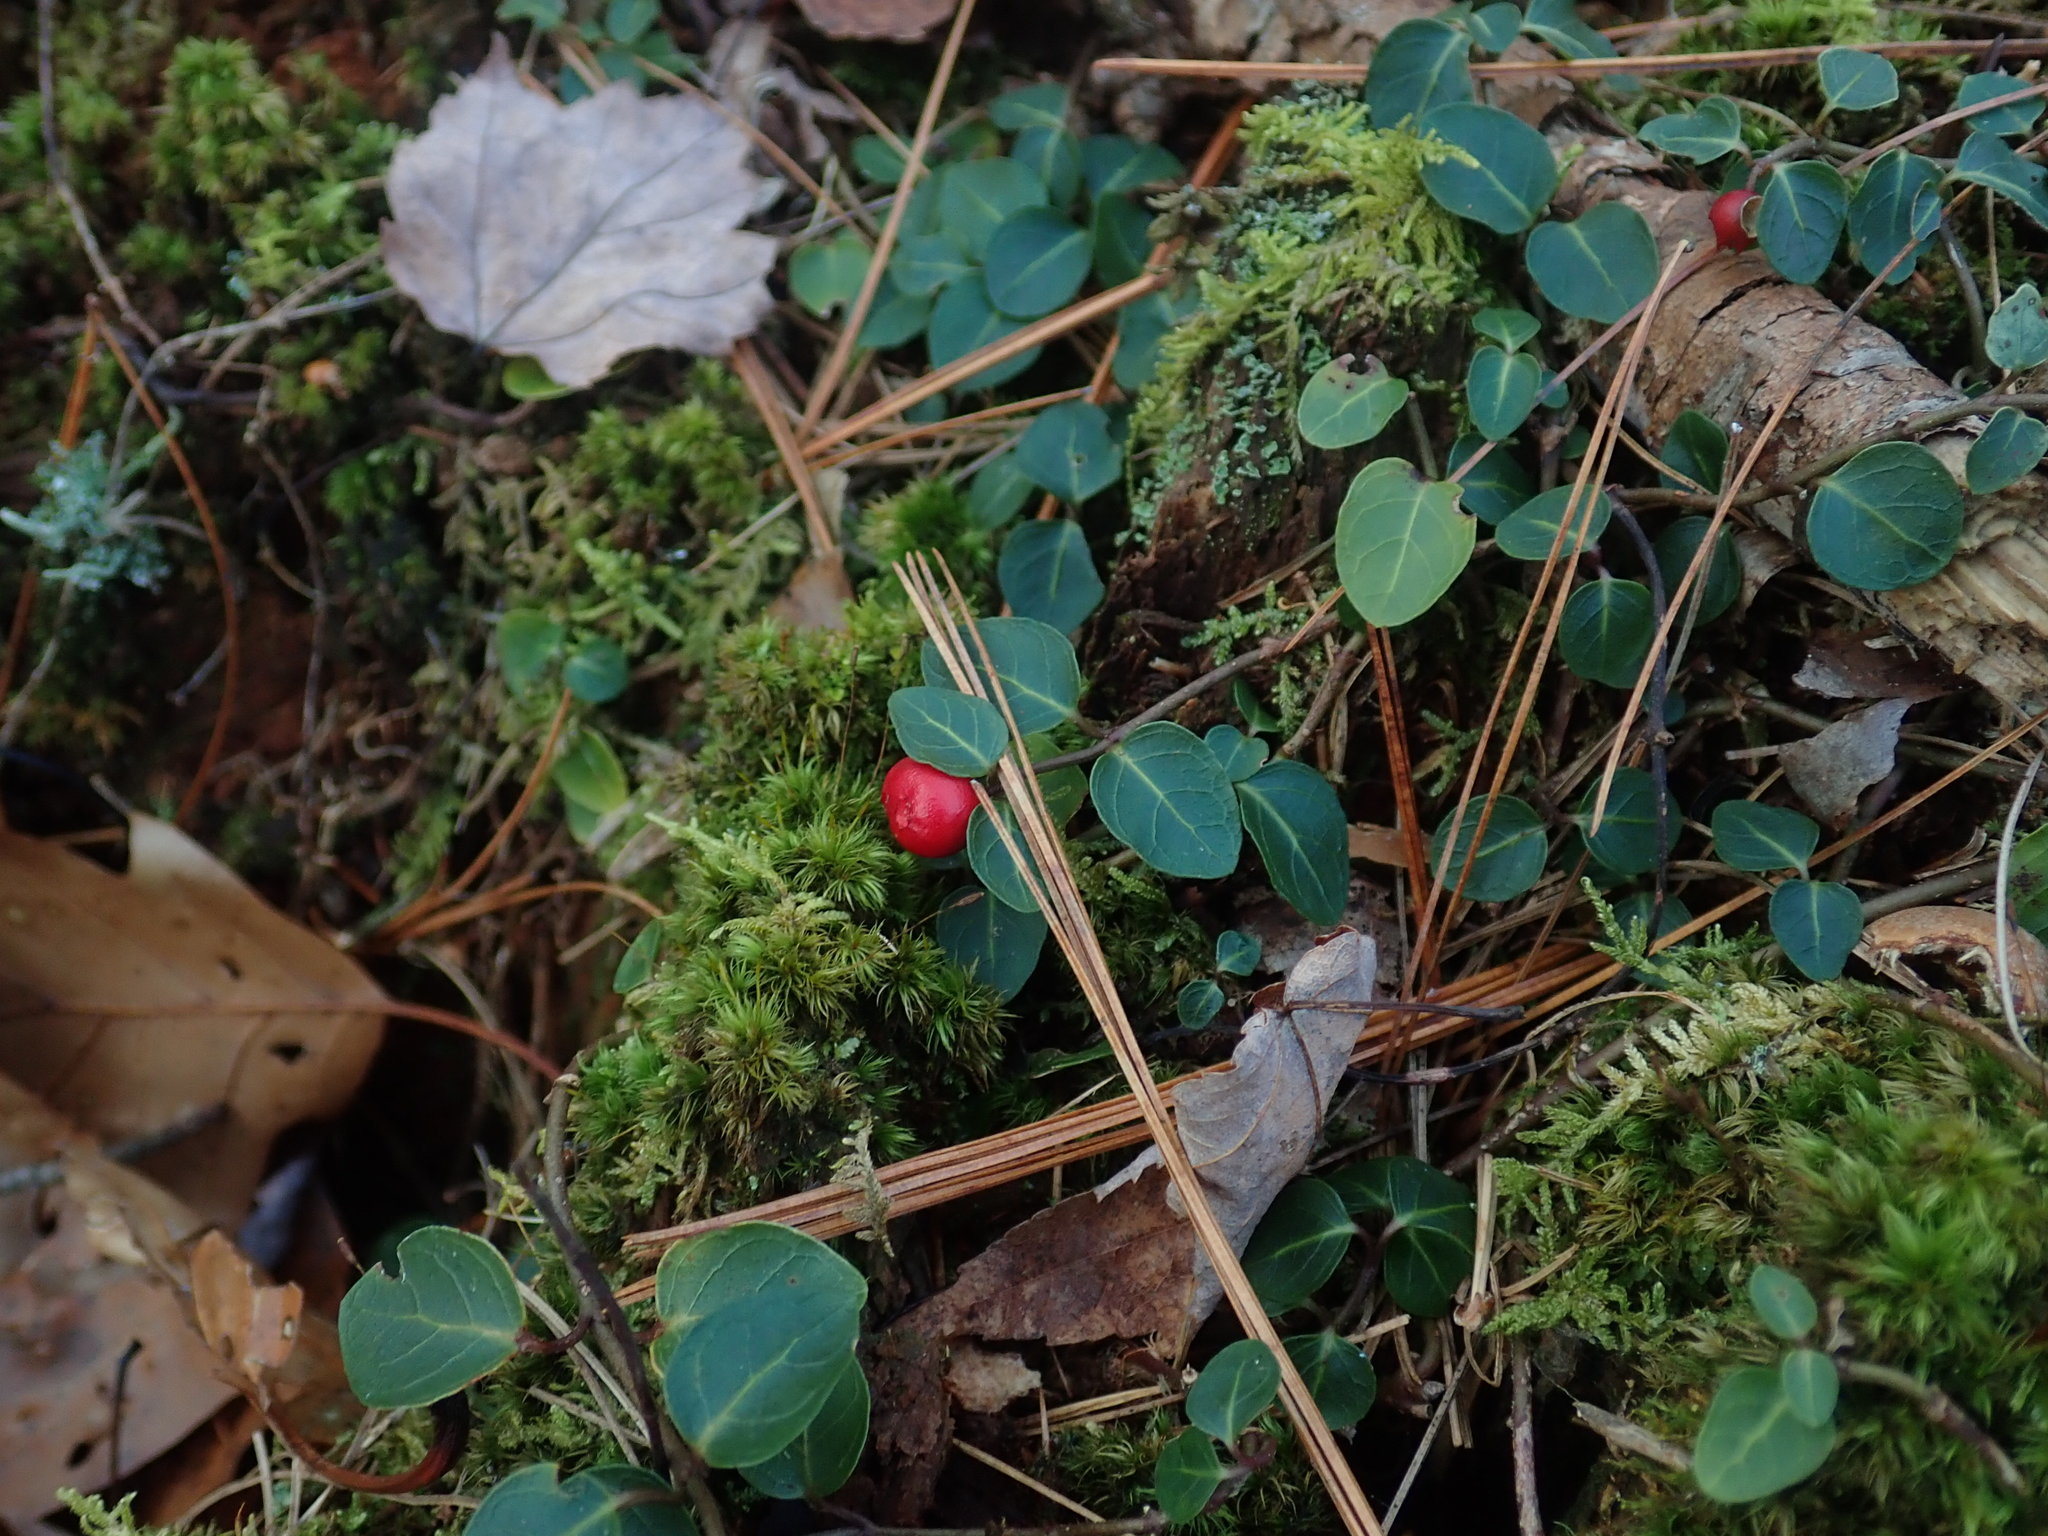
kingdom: Plantae
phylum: Tracheophyta
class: Magnoliopsida
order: Gentianales
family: Rubiaceae
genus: Mitchella
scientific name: Mitchella repens
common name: Partridge-berry
